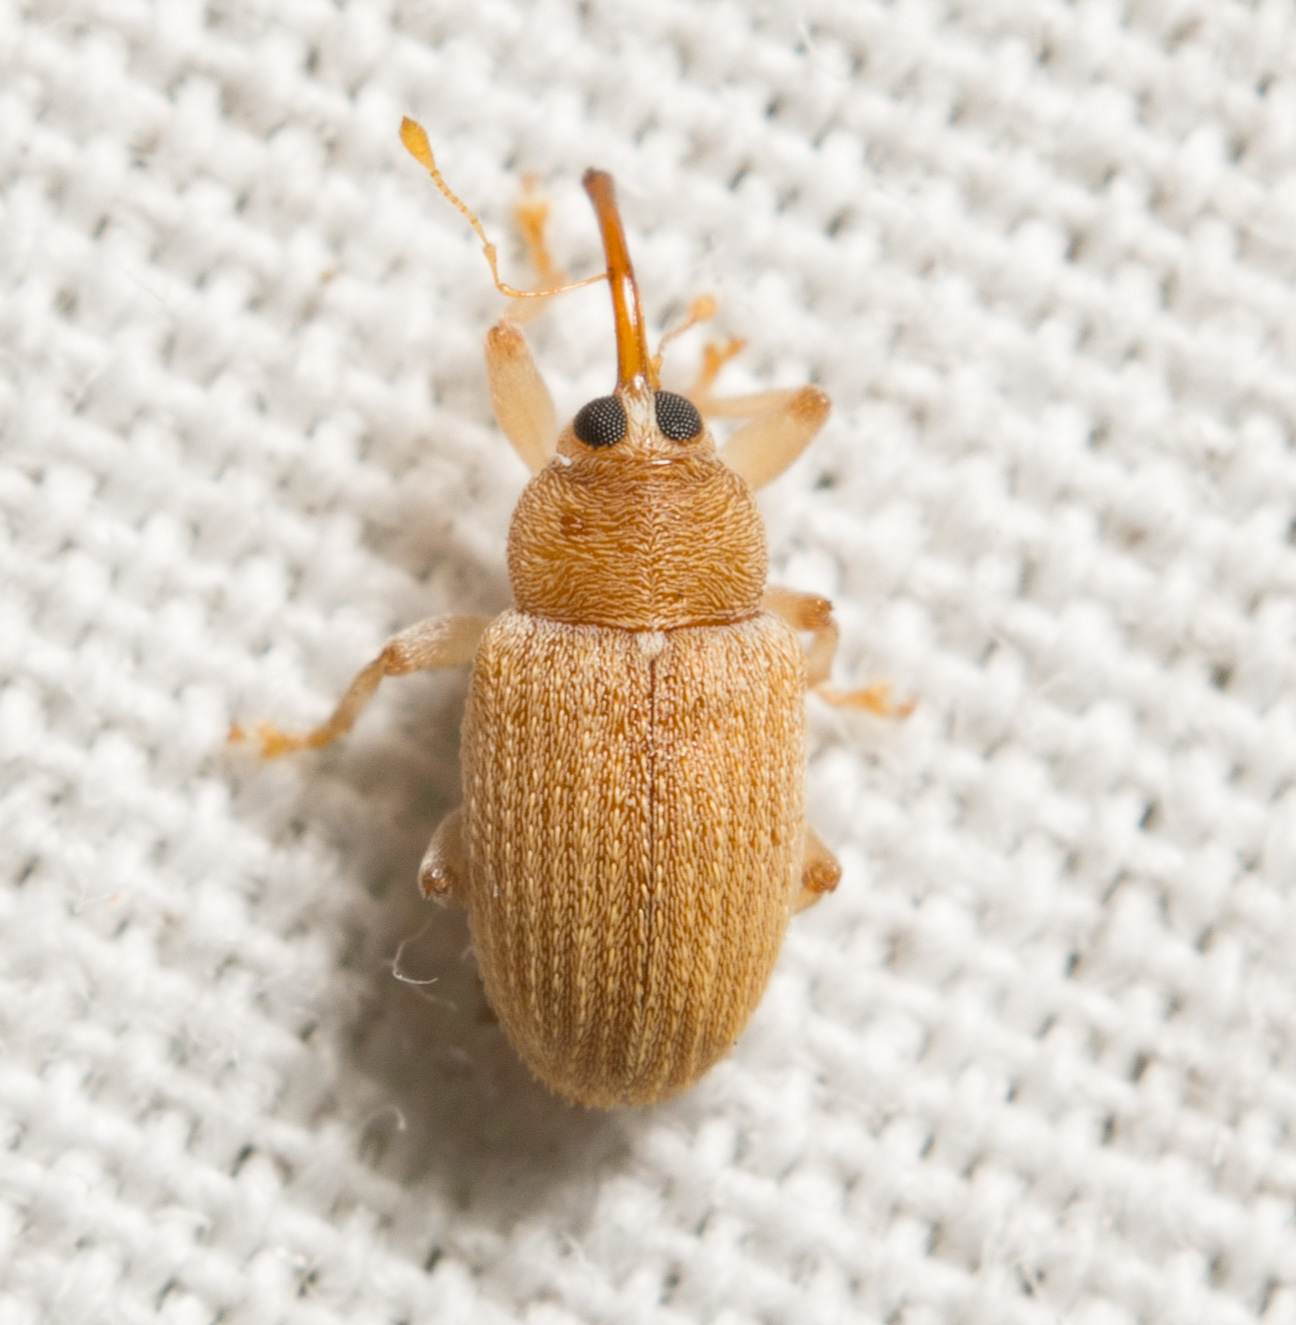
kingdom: Animalia
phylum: Arthropoda
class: Insecta
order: Coleoptera
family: Curculionidae
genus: Lignyodes
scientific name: Lignyodes helvolus
